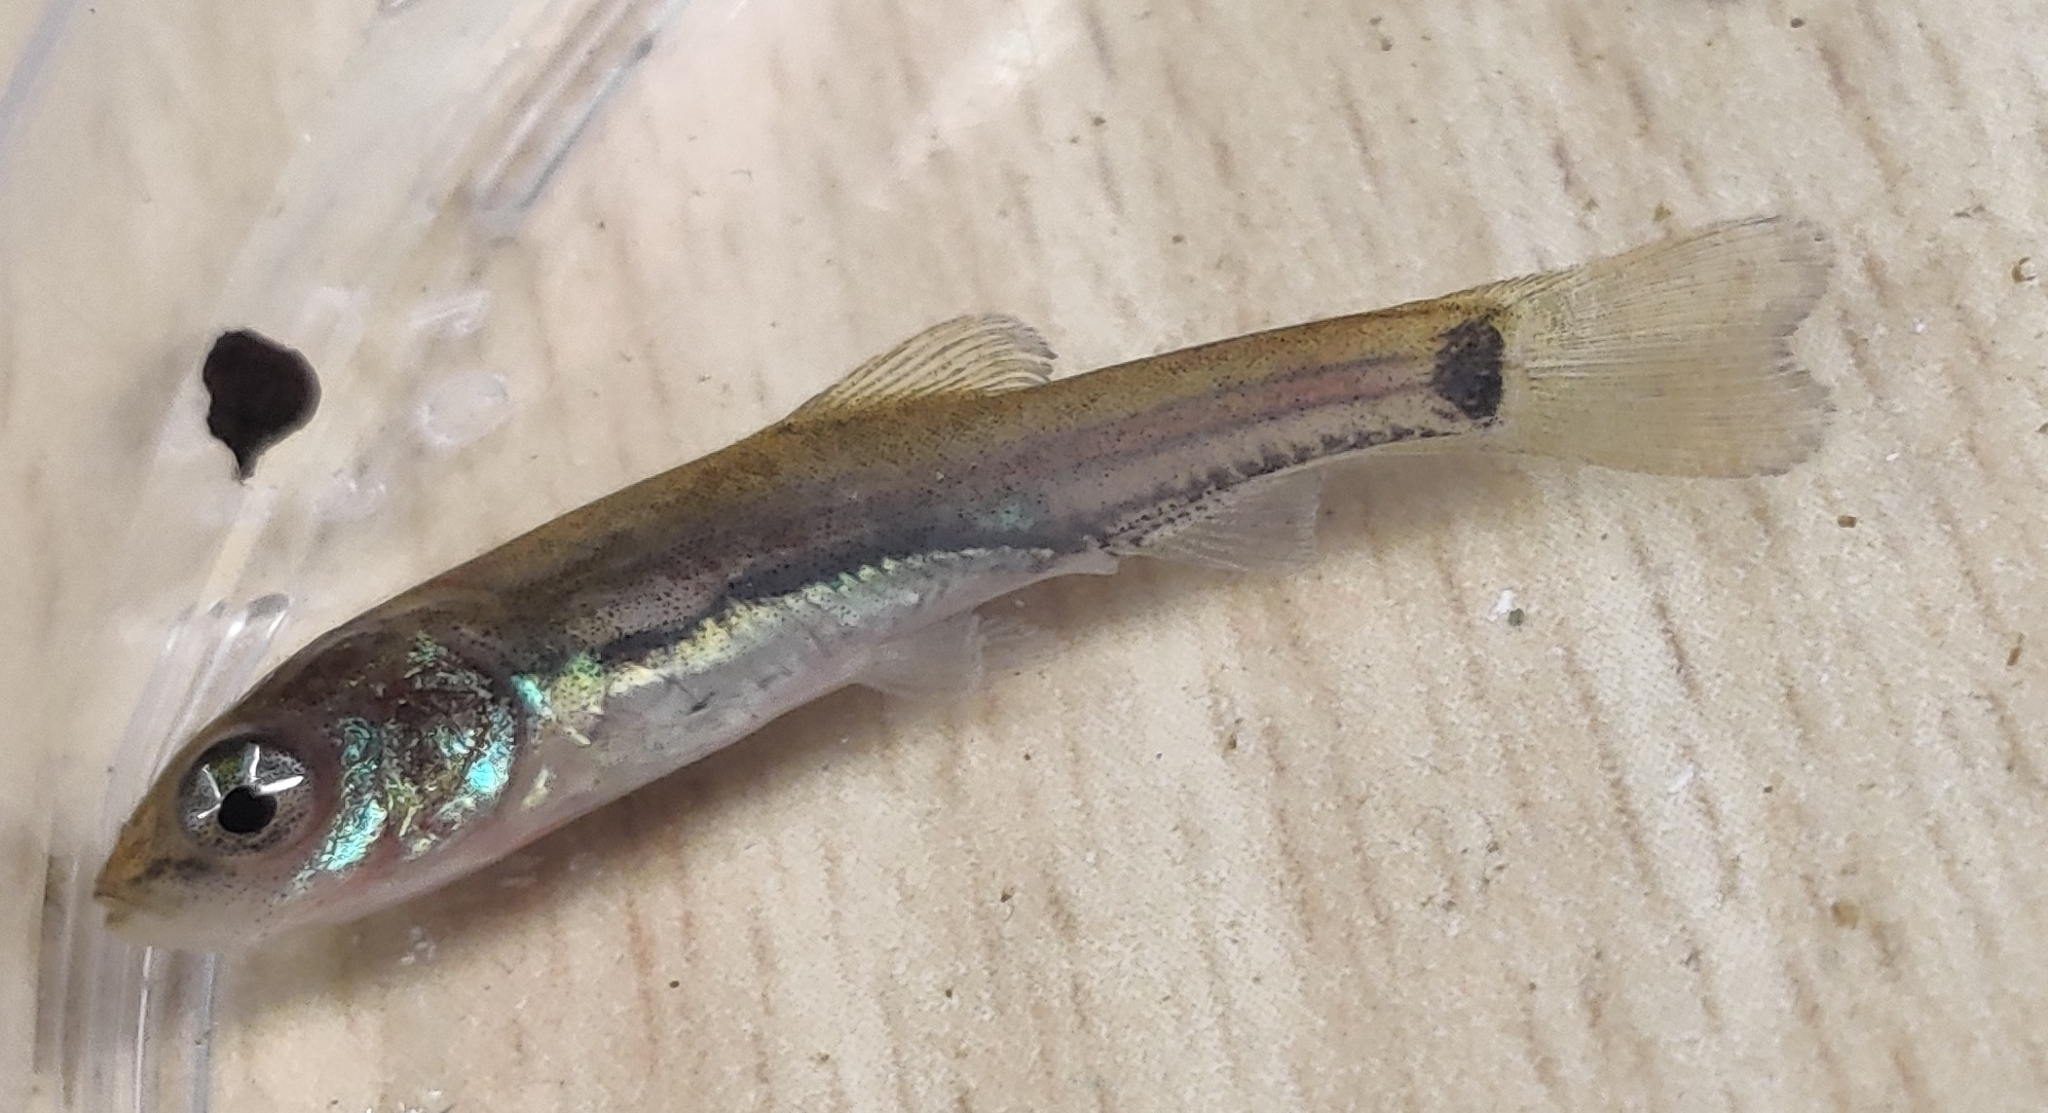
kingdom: Animalia
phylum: Chordata
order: Cypriniformes
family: Cyprinidae
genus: Tinca
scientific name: Tinca tinca
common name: Tench
